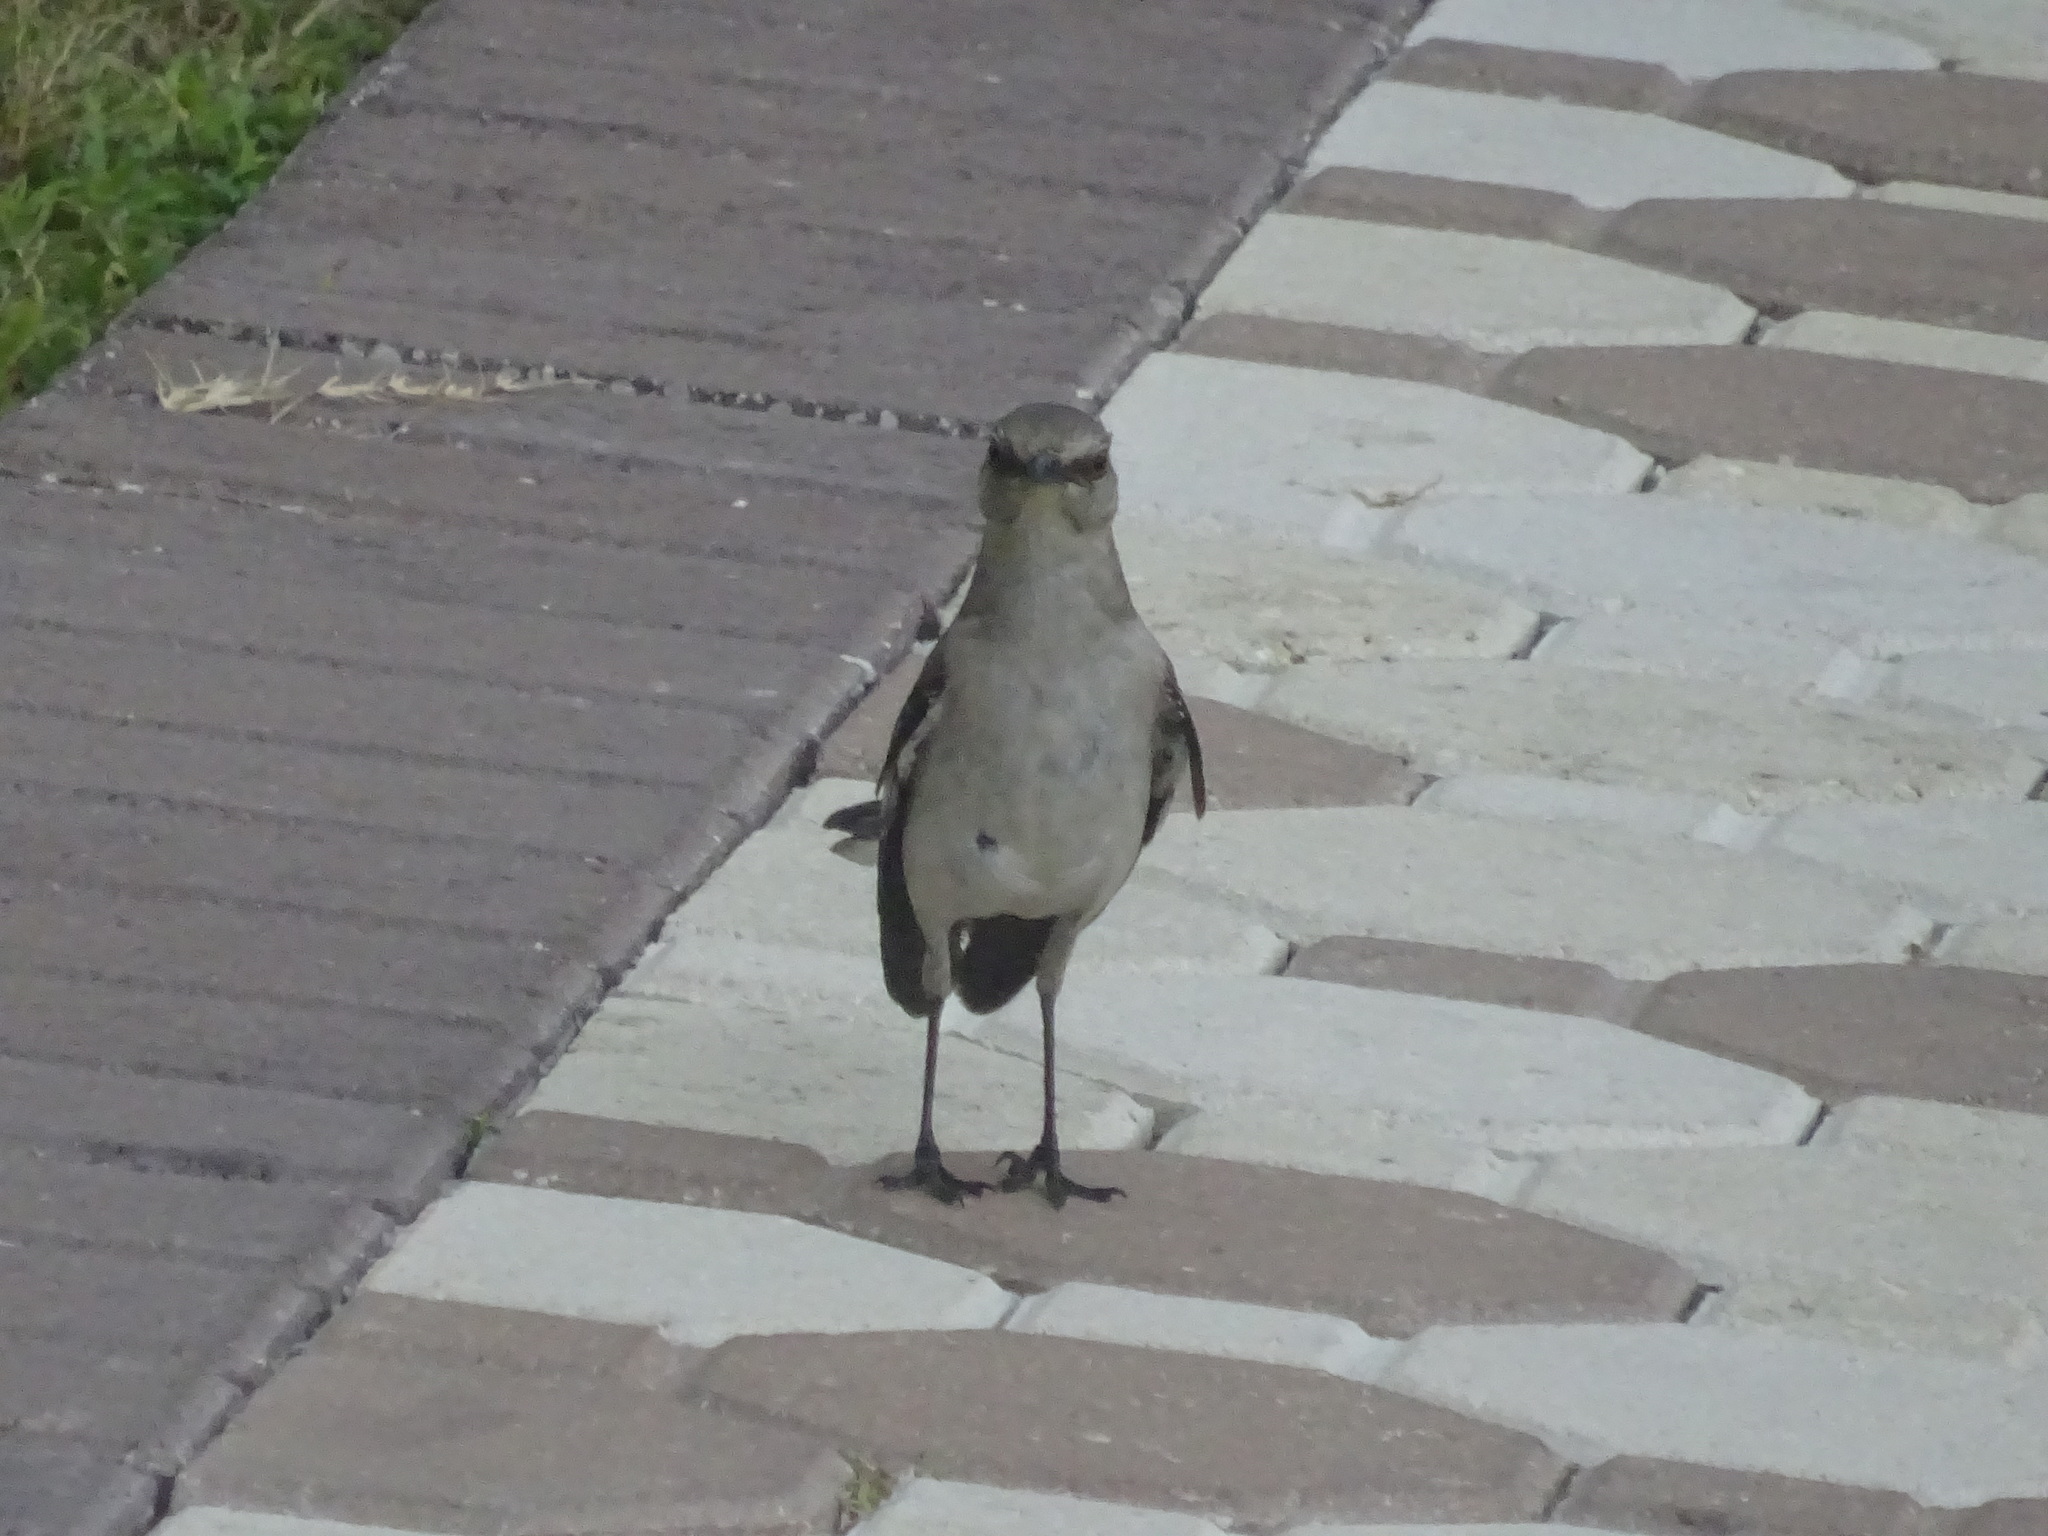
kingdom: Animalia
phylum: Chordata
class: Aves
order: Passeriformes
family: Mimidae
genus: Mimus
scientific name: Mimus polyglottos
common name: Northern mockingbird
